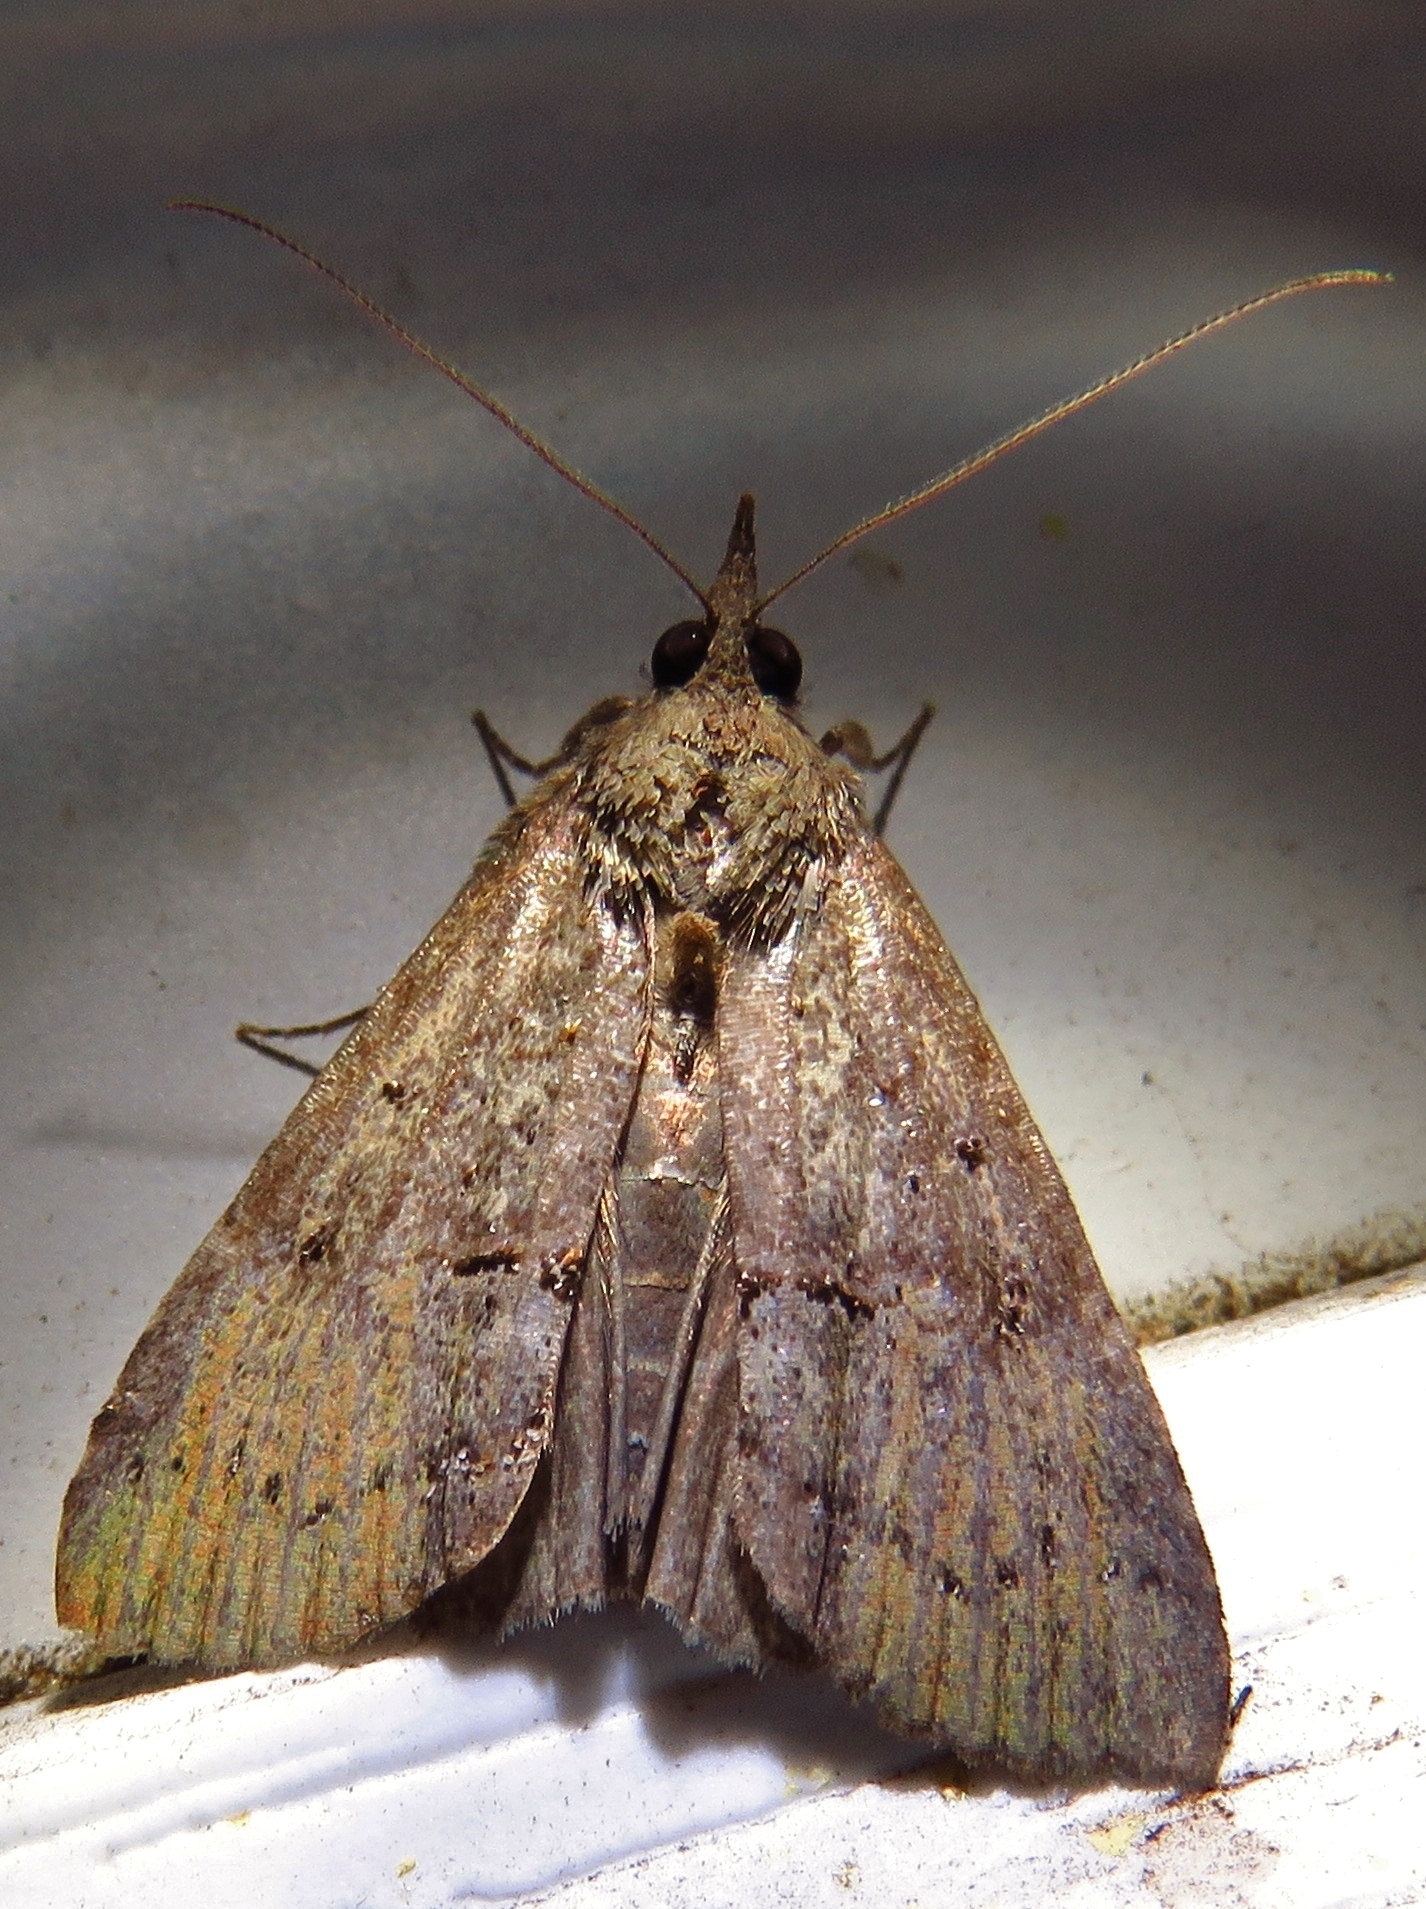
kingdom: Animalia
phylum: Arthropoda
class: Insecta
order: Lepidoptera
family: Erebidae
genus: Hypena
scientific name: Hypena scabra
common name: Green cloverworm
